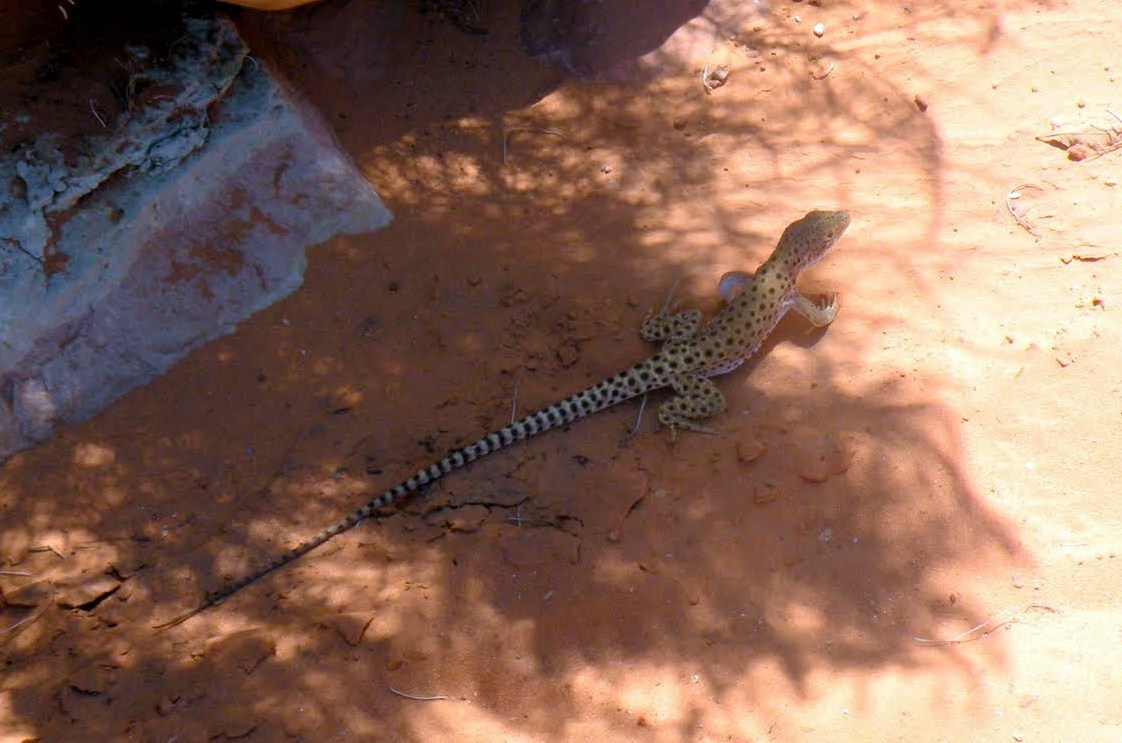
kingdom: Animalia
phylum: Chordata
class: Squamata
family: Crotaphytidae
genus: Gambelia
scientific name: Gambelia wislizenii
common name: Longnose leopard lizard
